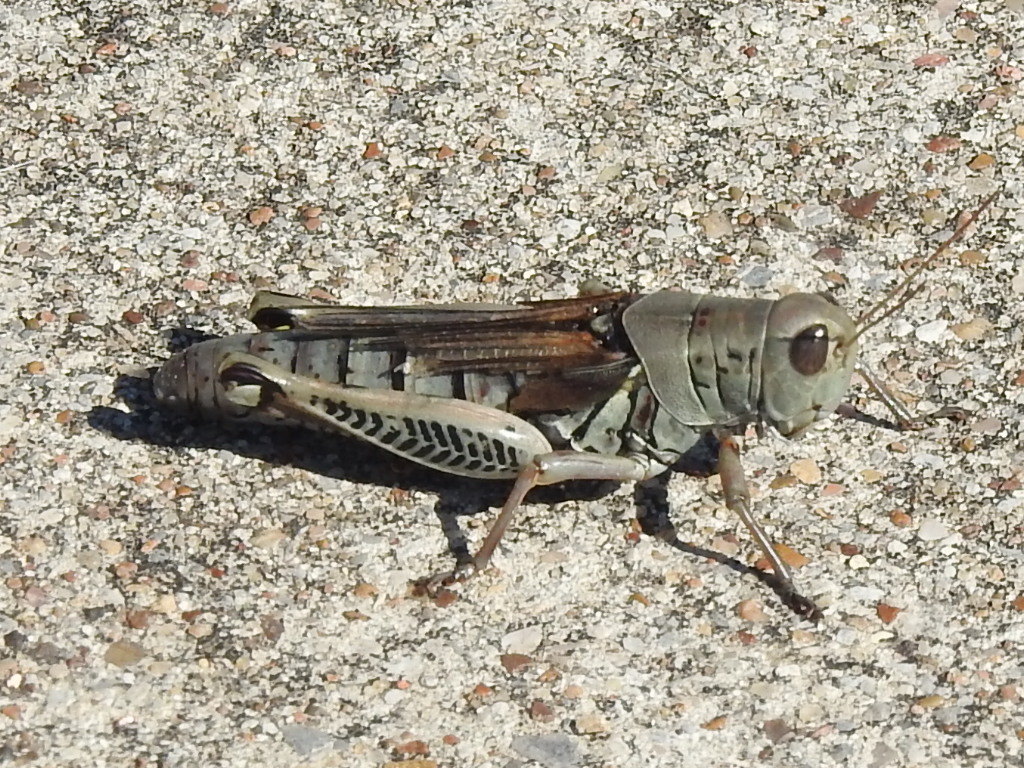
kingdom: Animalia
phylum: Arthropoda
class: Insecta
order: Orthoptera
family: Acrididae
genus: Melanoplus
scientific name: Melanoplus differentialis
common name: Differential grasshopper
